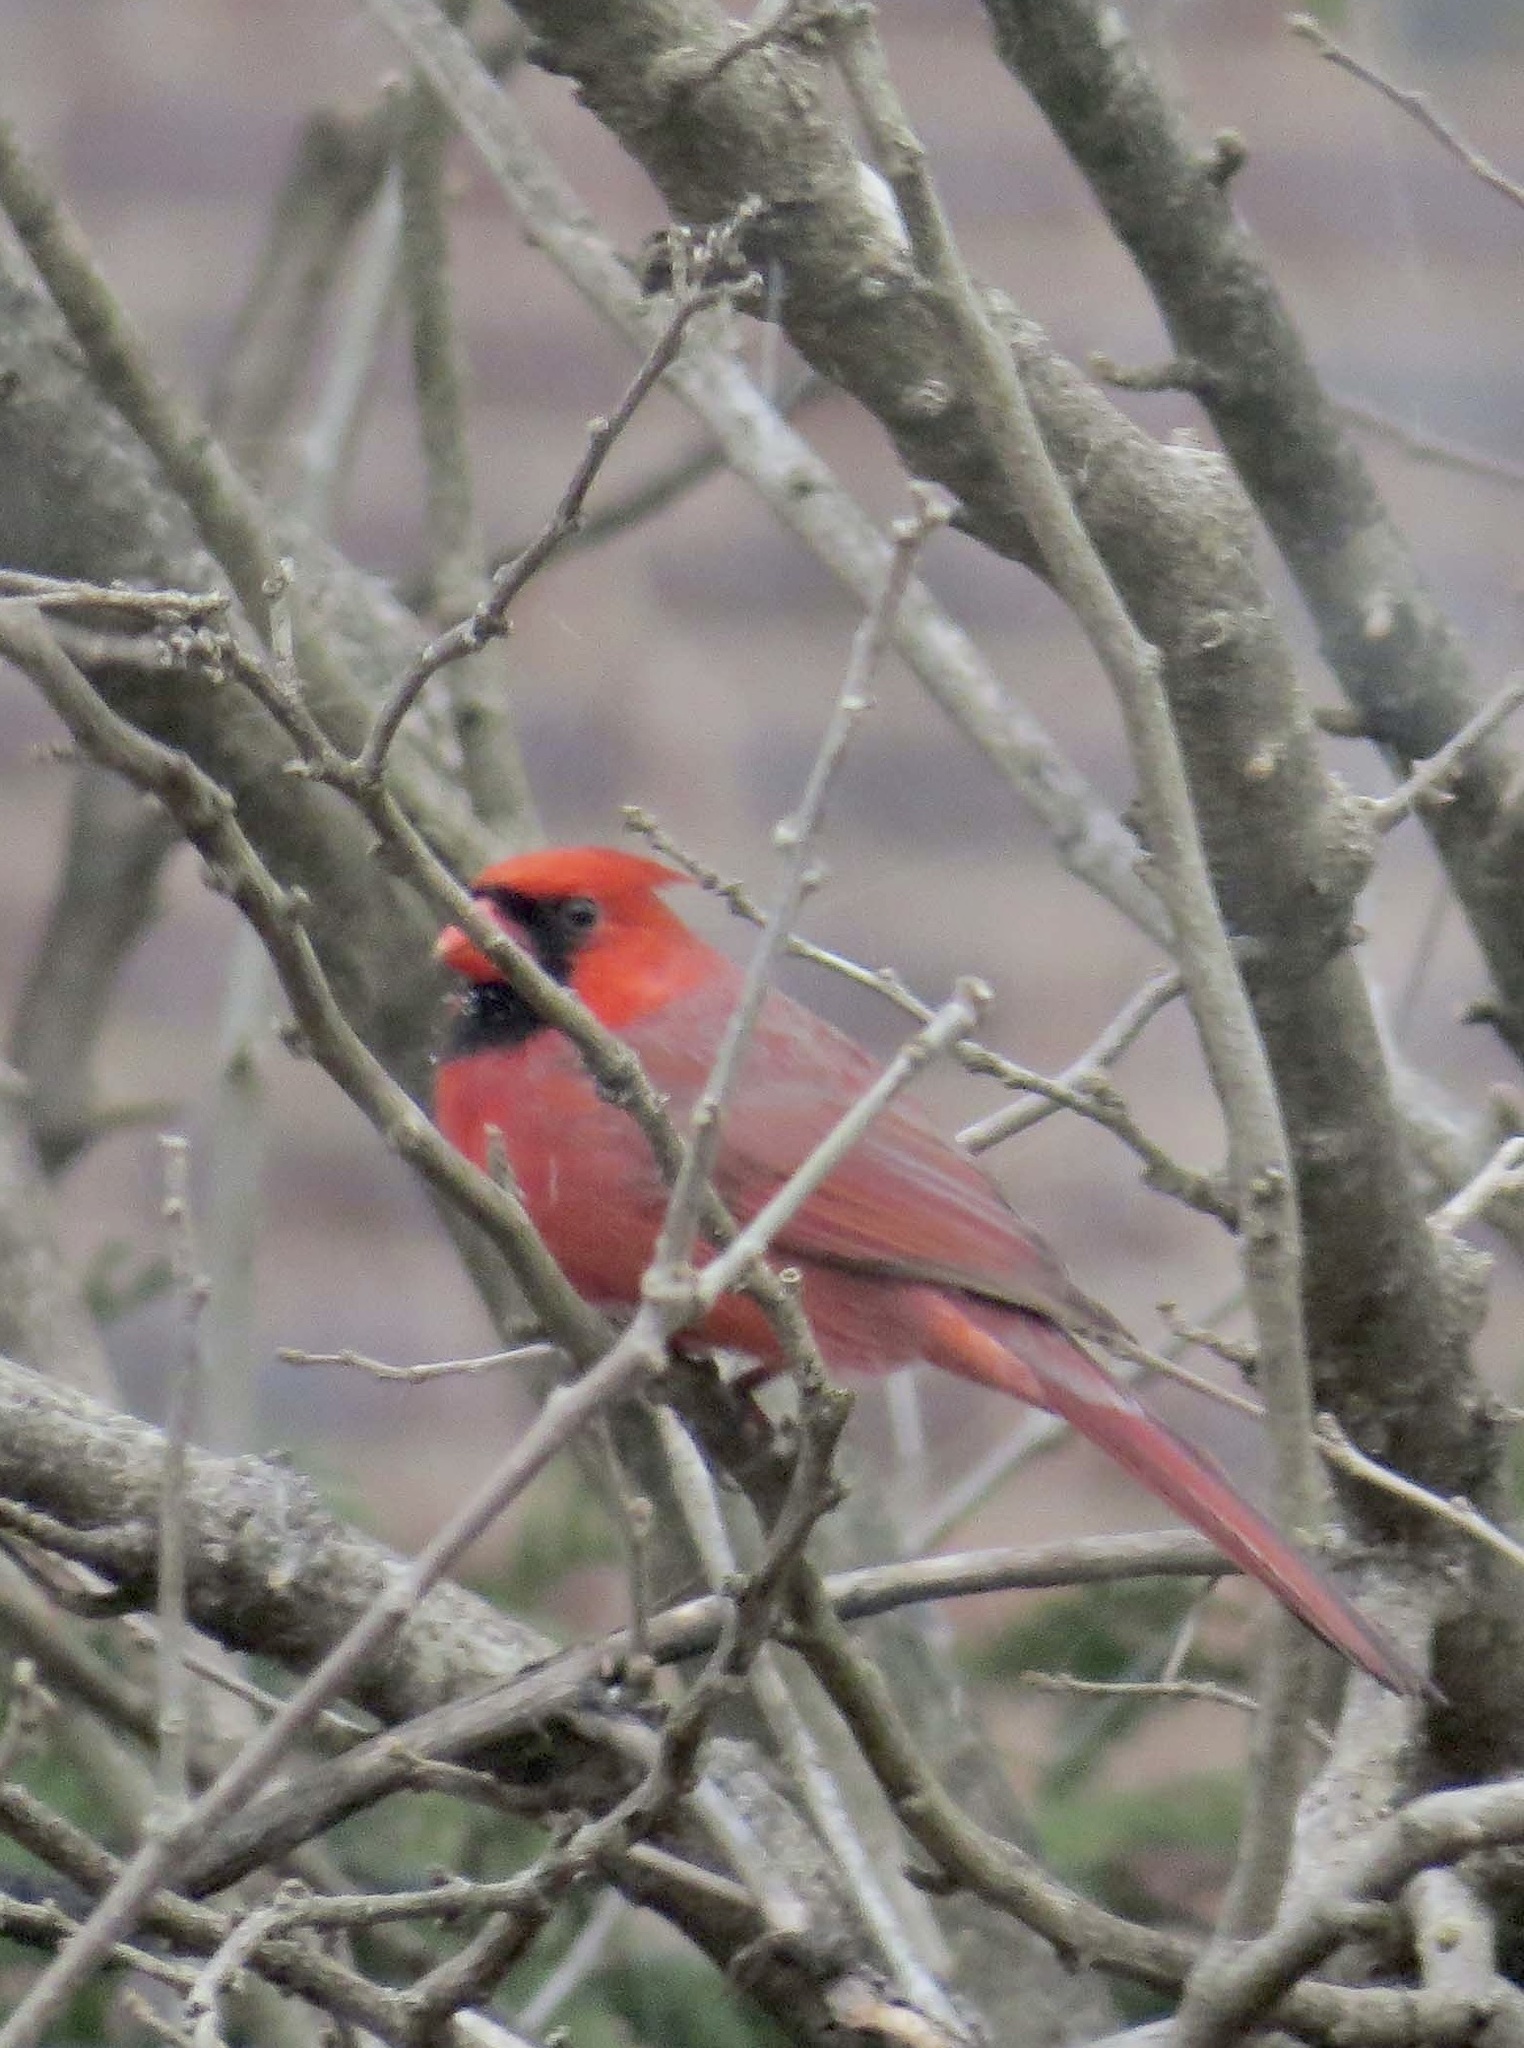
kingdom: Animalia
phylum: Chordata
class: Aves
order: Passeriformes
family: Cardinalidae
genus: Cardinalis
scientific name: Cardinalis cardinalis
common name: Northern cardinal
